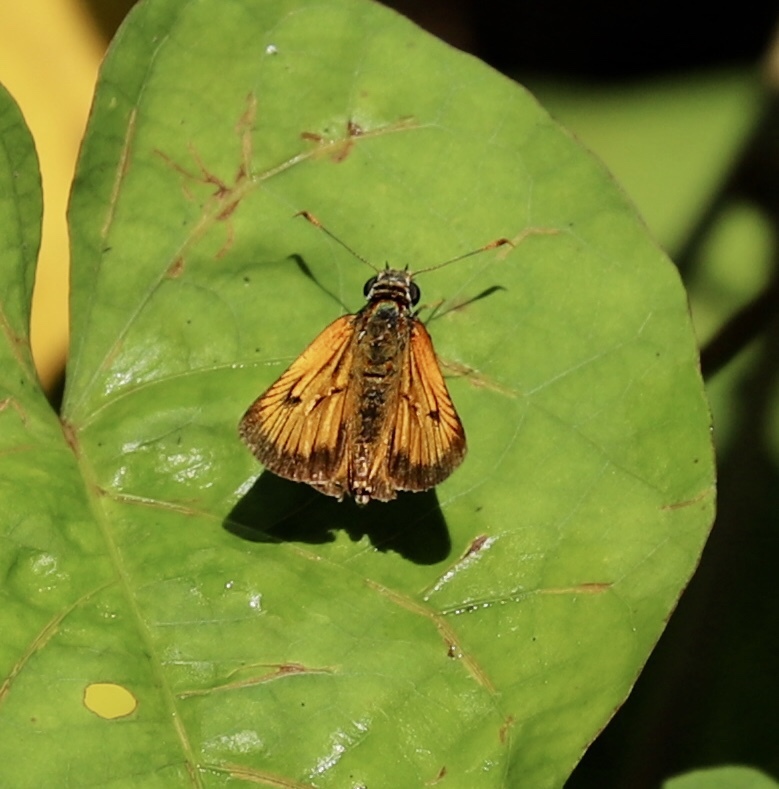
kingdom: Animalia
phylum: Arthropoda
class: Insecta
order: Lepidoptera
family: Hesperiidae
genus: Choranthus
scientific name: Choranthus haitensis
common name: Haitian skipper
